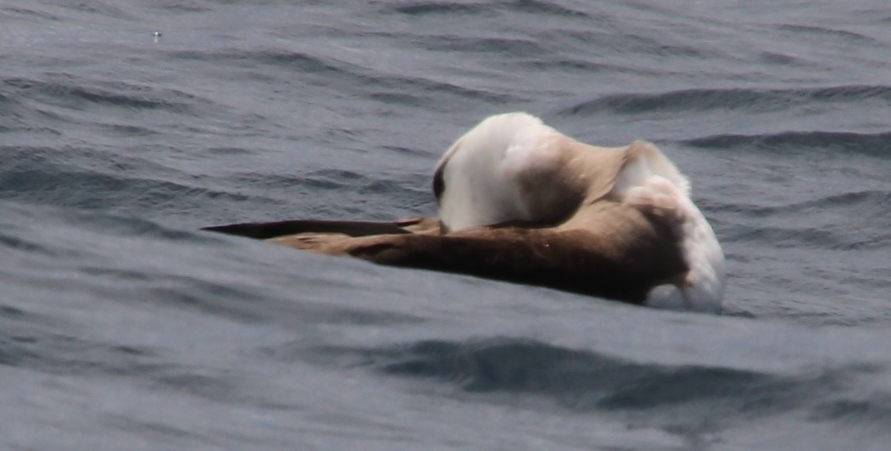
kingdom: Animalia
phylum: Chordata
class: Aves
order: Procellariiformes
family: Diomedeidae
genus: Thalassarche
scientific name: Thalassarche carteri
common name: Indian yellow-nosed albatross
